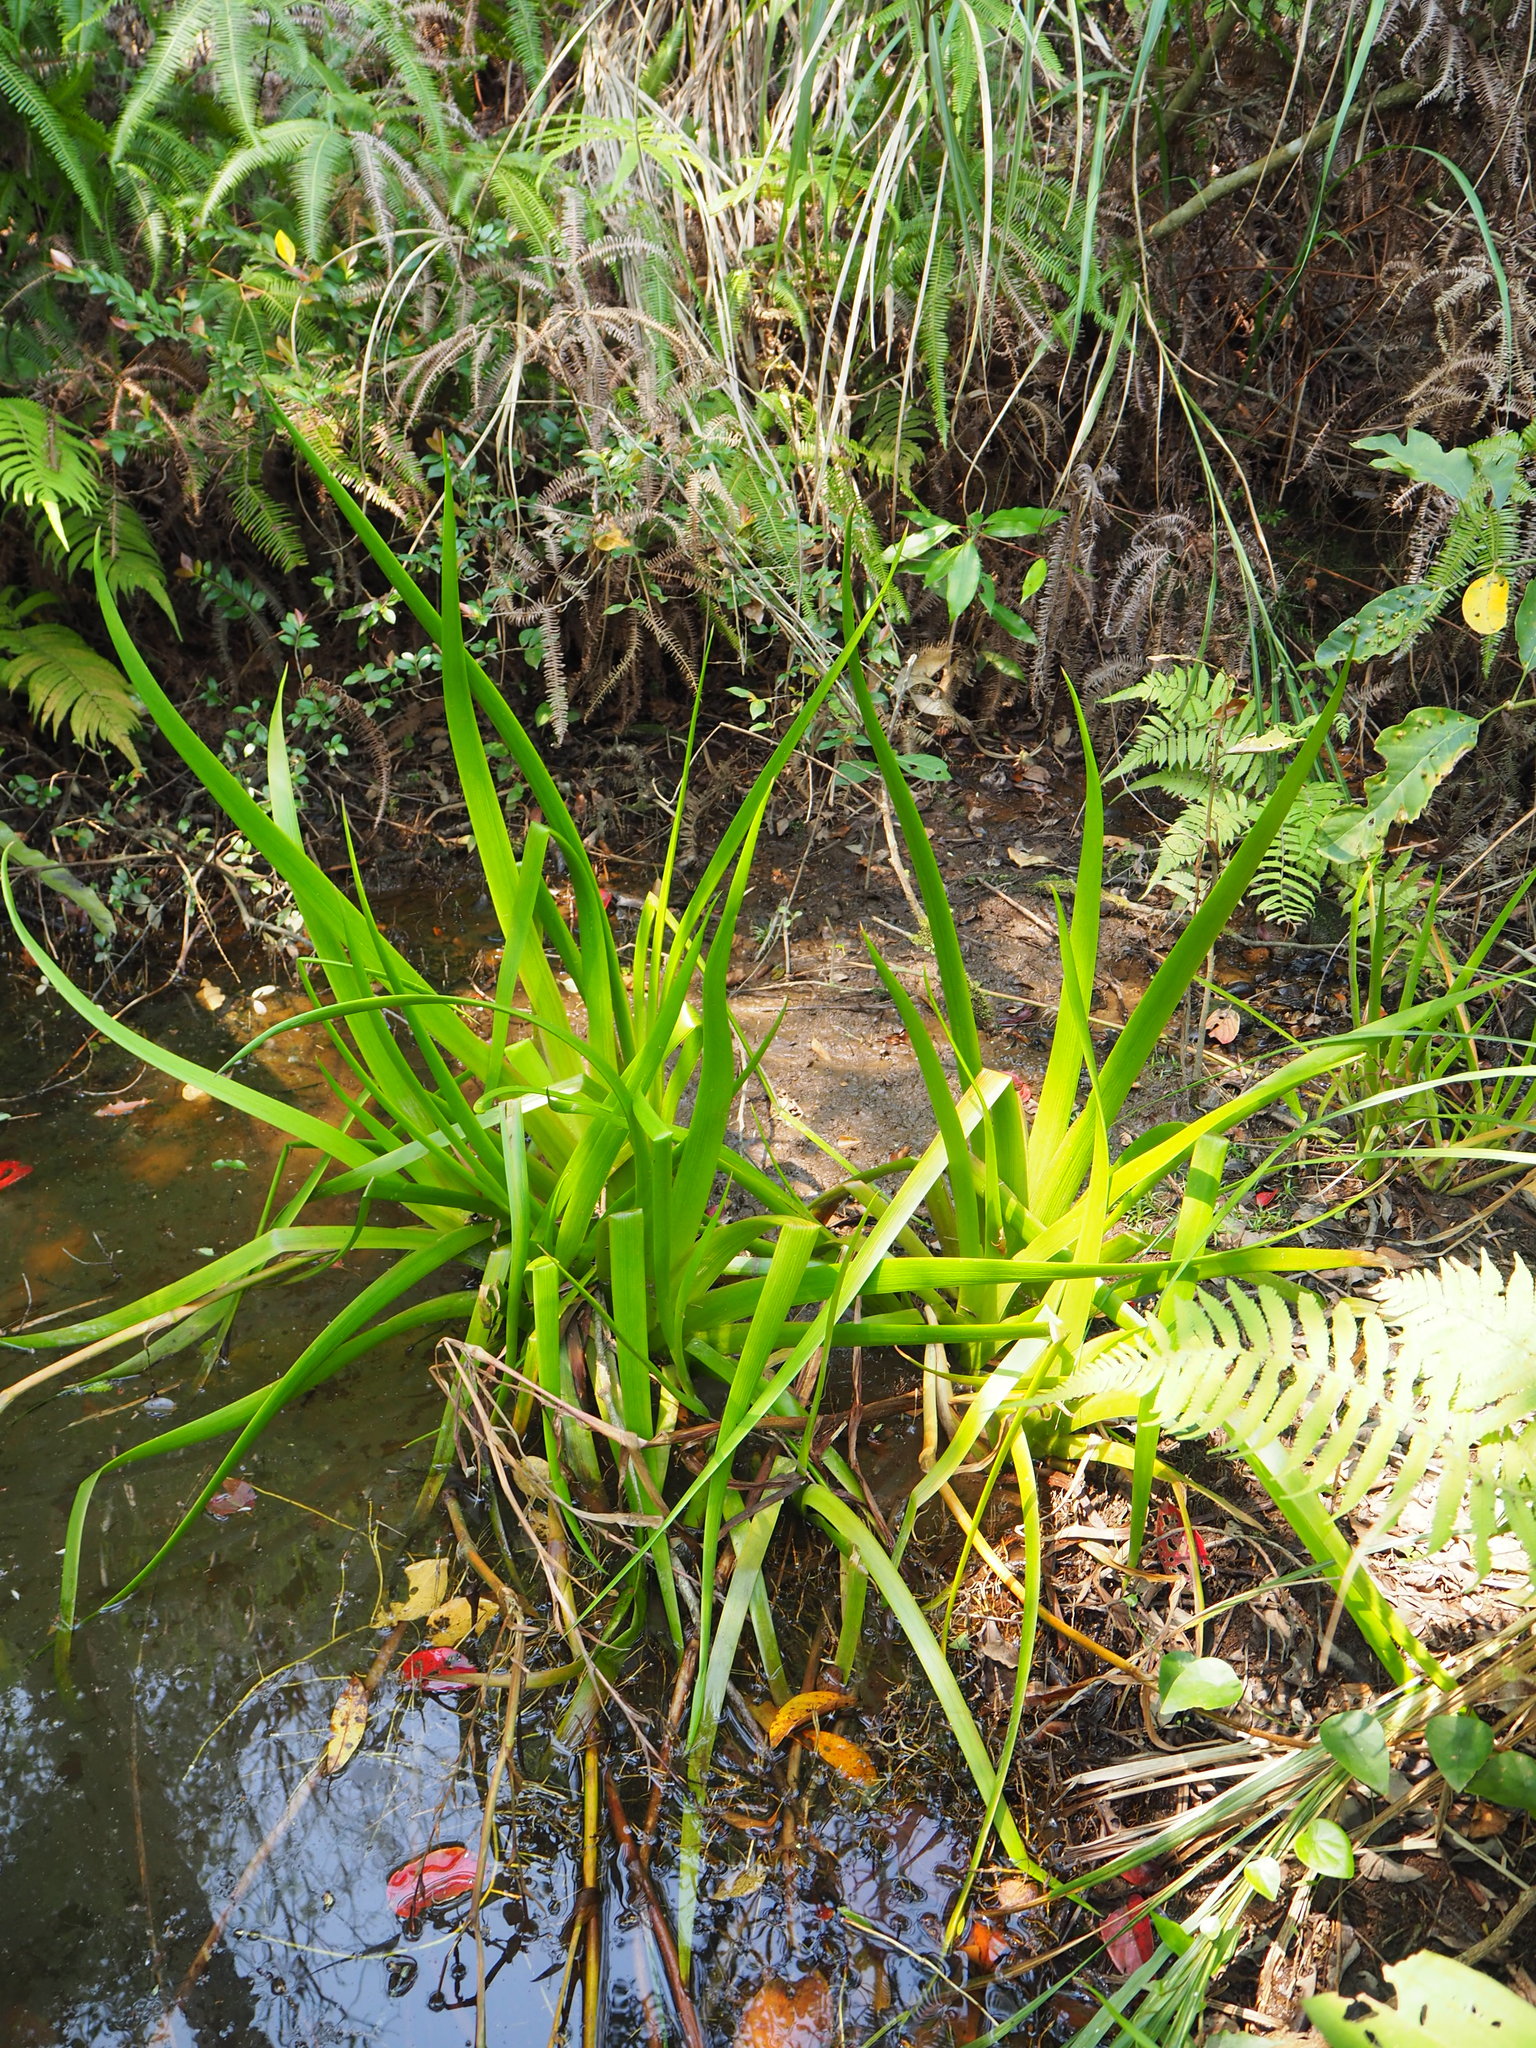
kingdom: Plantae
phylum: Tracheophyta
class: Liliopsida
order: Commelinales
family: Philydraceae
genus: Philydrum
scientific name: Philydrum lanuginosum
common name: Woolly frog's mouth
